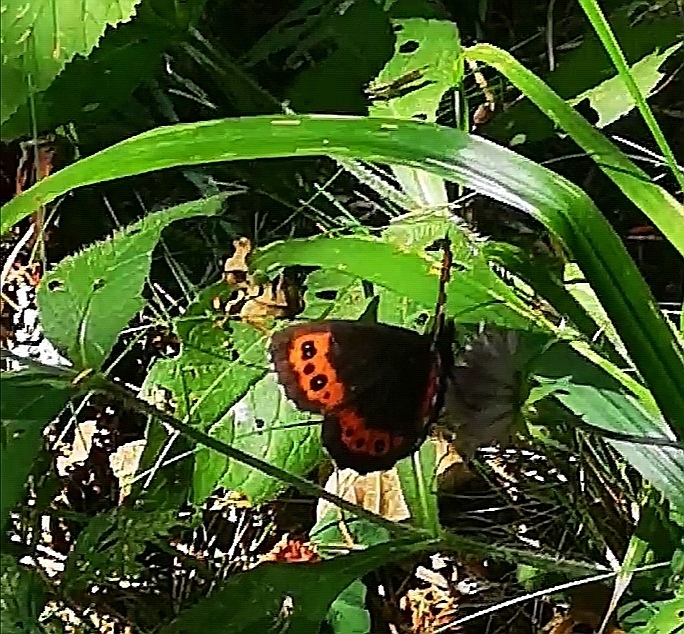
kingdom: Animalia
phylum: Arthropoda
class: Insecta
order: Lepidoptera
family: Nymphalidae
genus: Erebia
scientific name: Erebia ligea
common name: Arran brown
